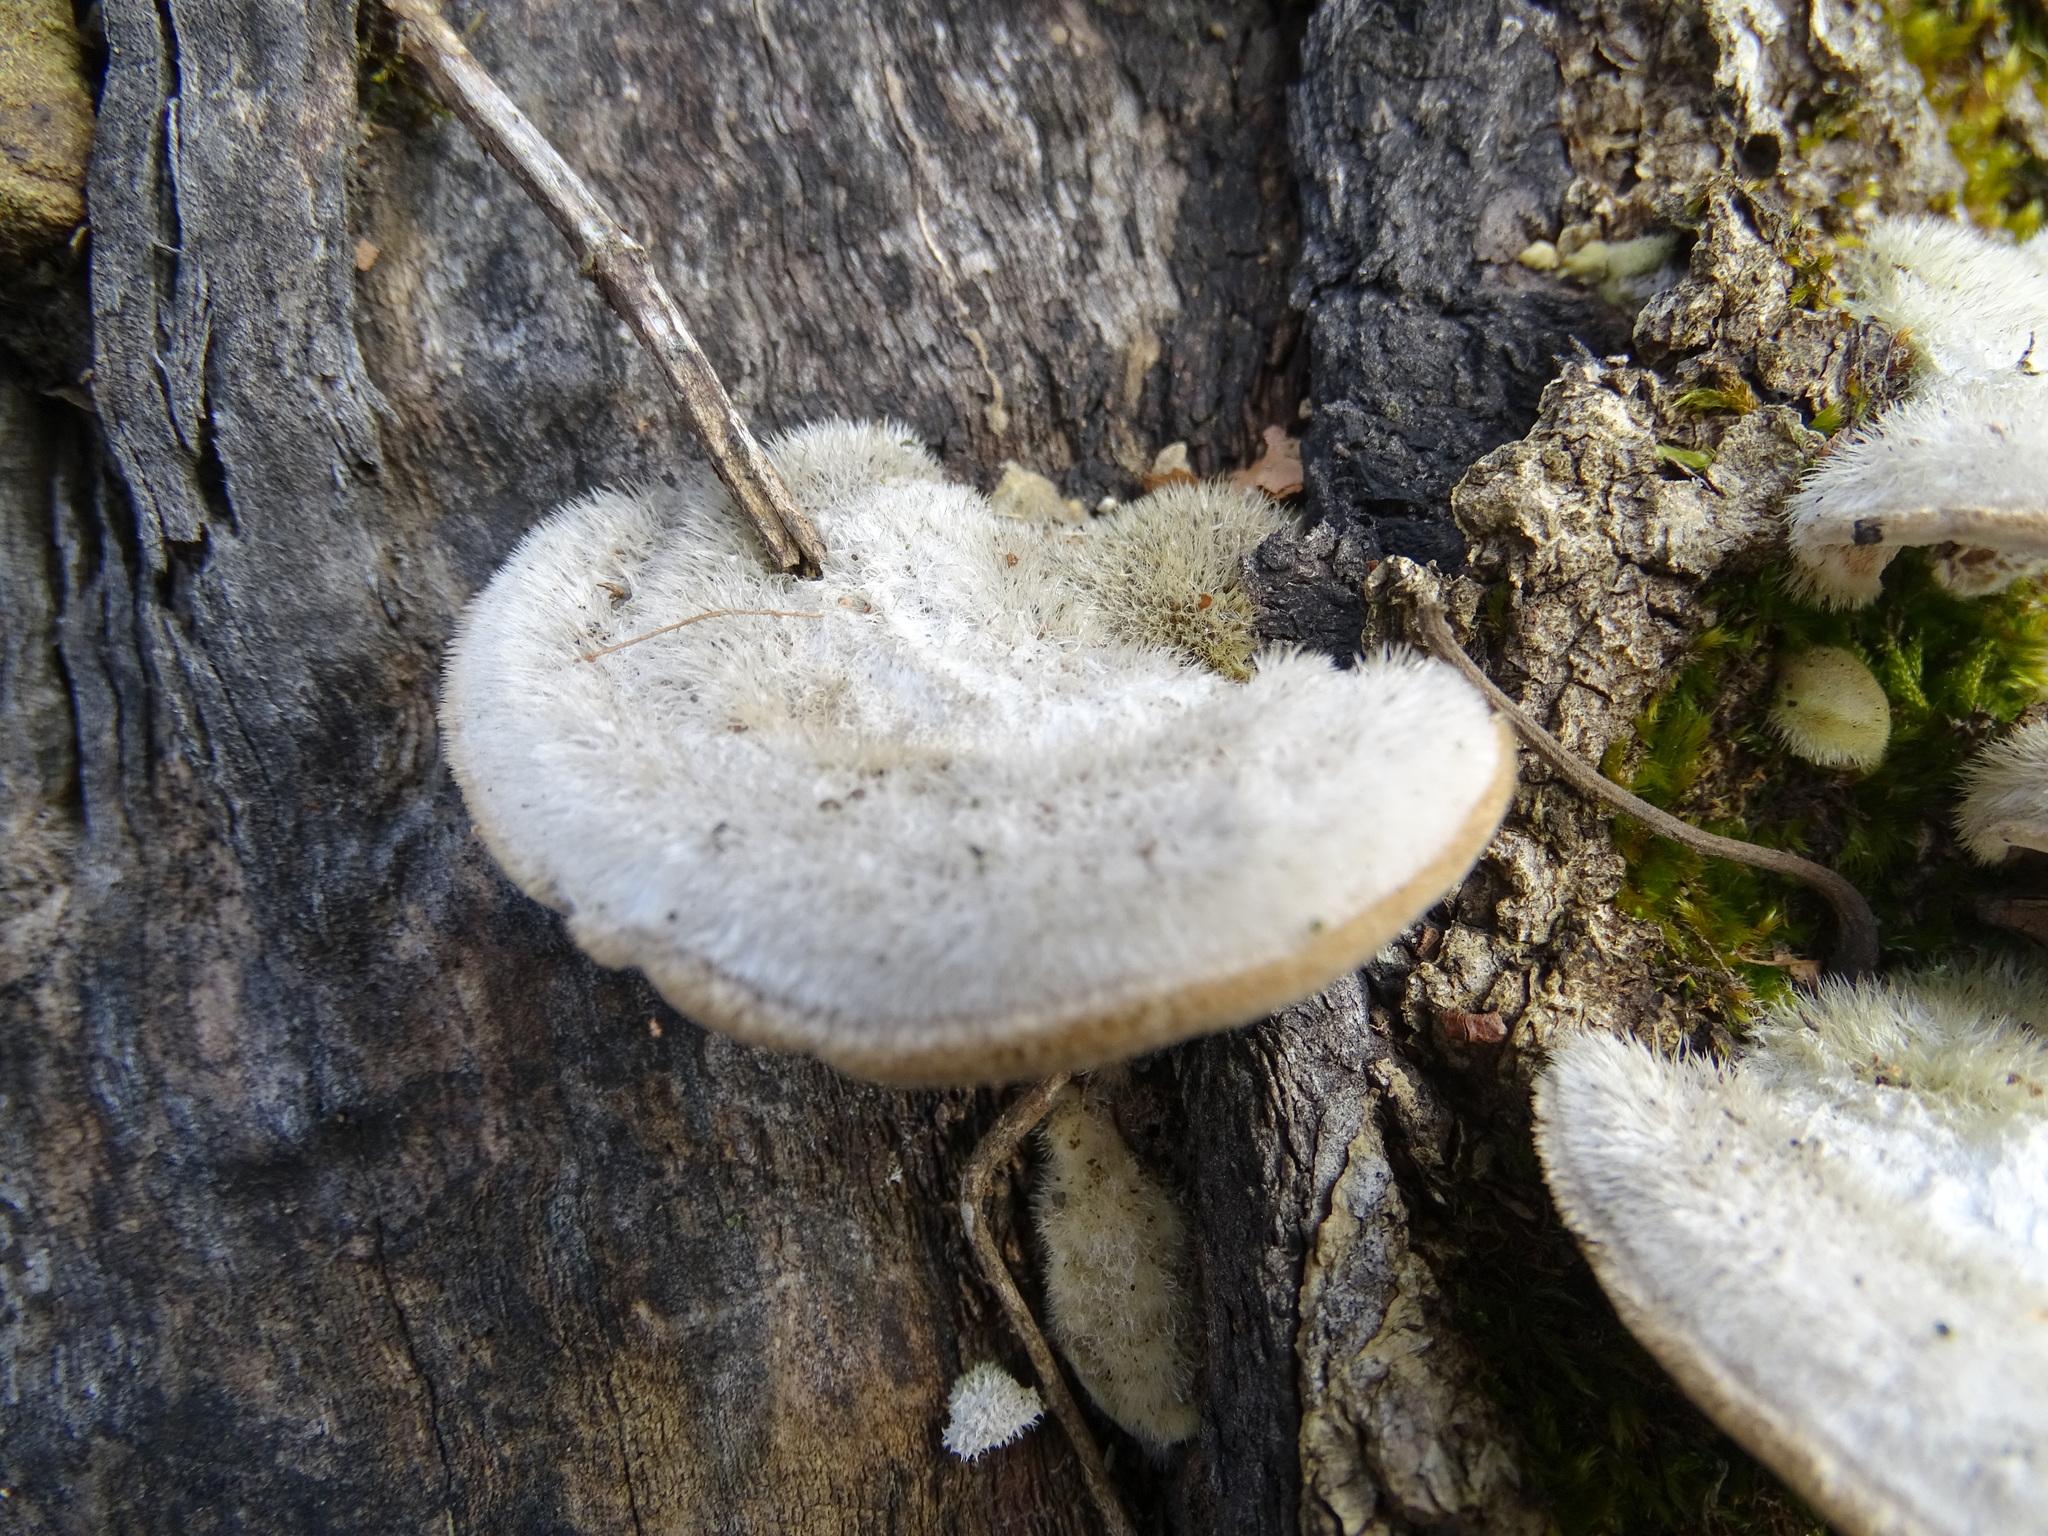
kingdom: Fungi
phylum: Basidiomycota
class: Agaricomycetes
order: Polyporales
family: Polyporaceae
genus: Trametes
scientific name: Trametes hirsuta
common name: Hairy bracket
